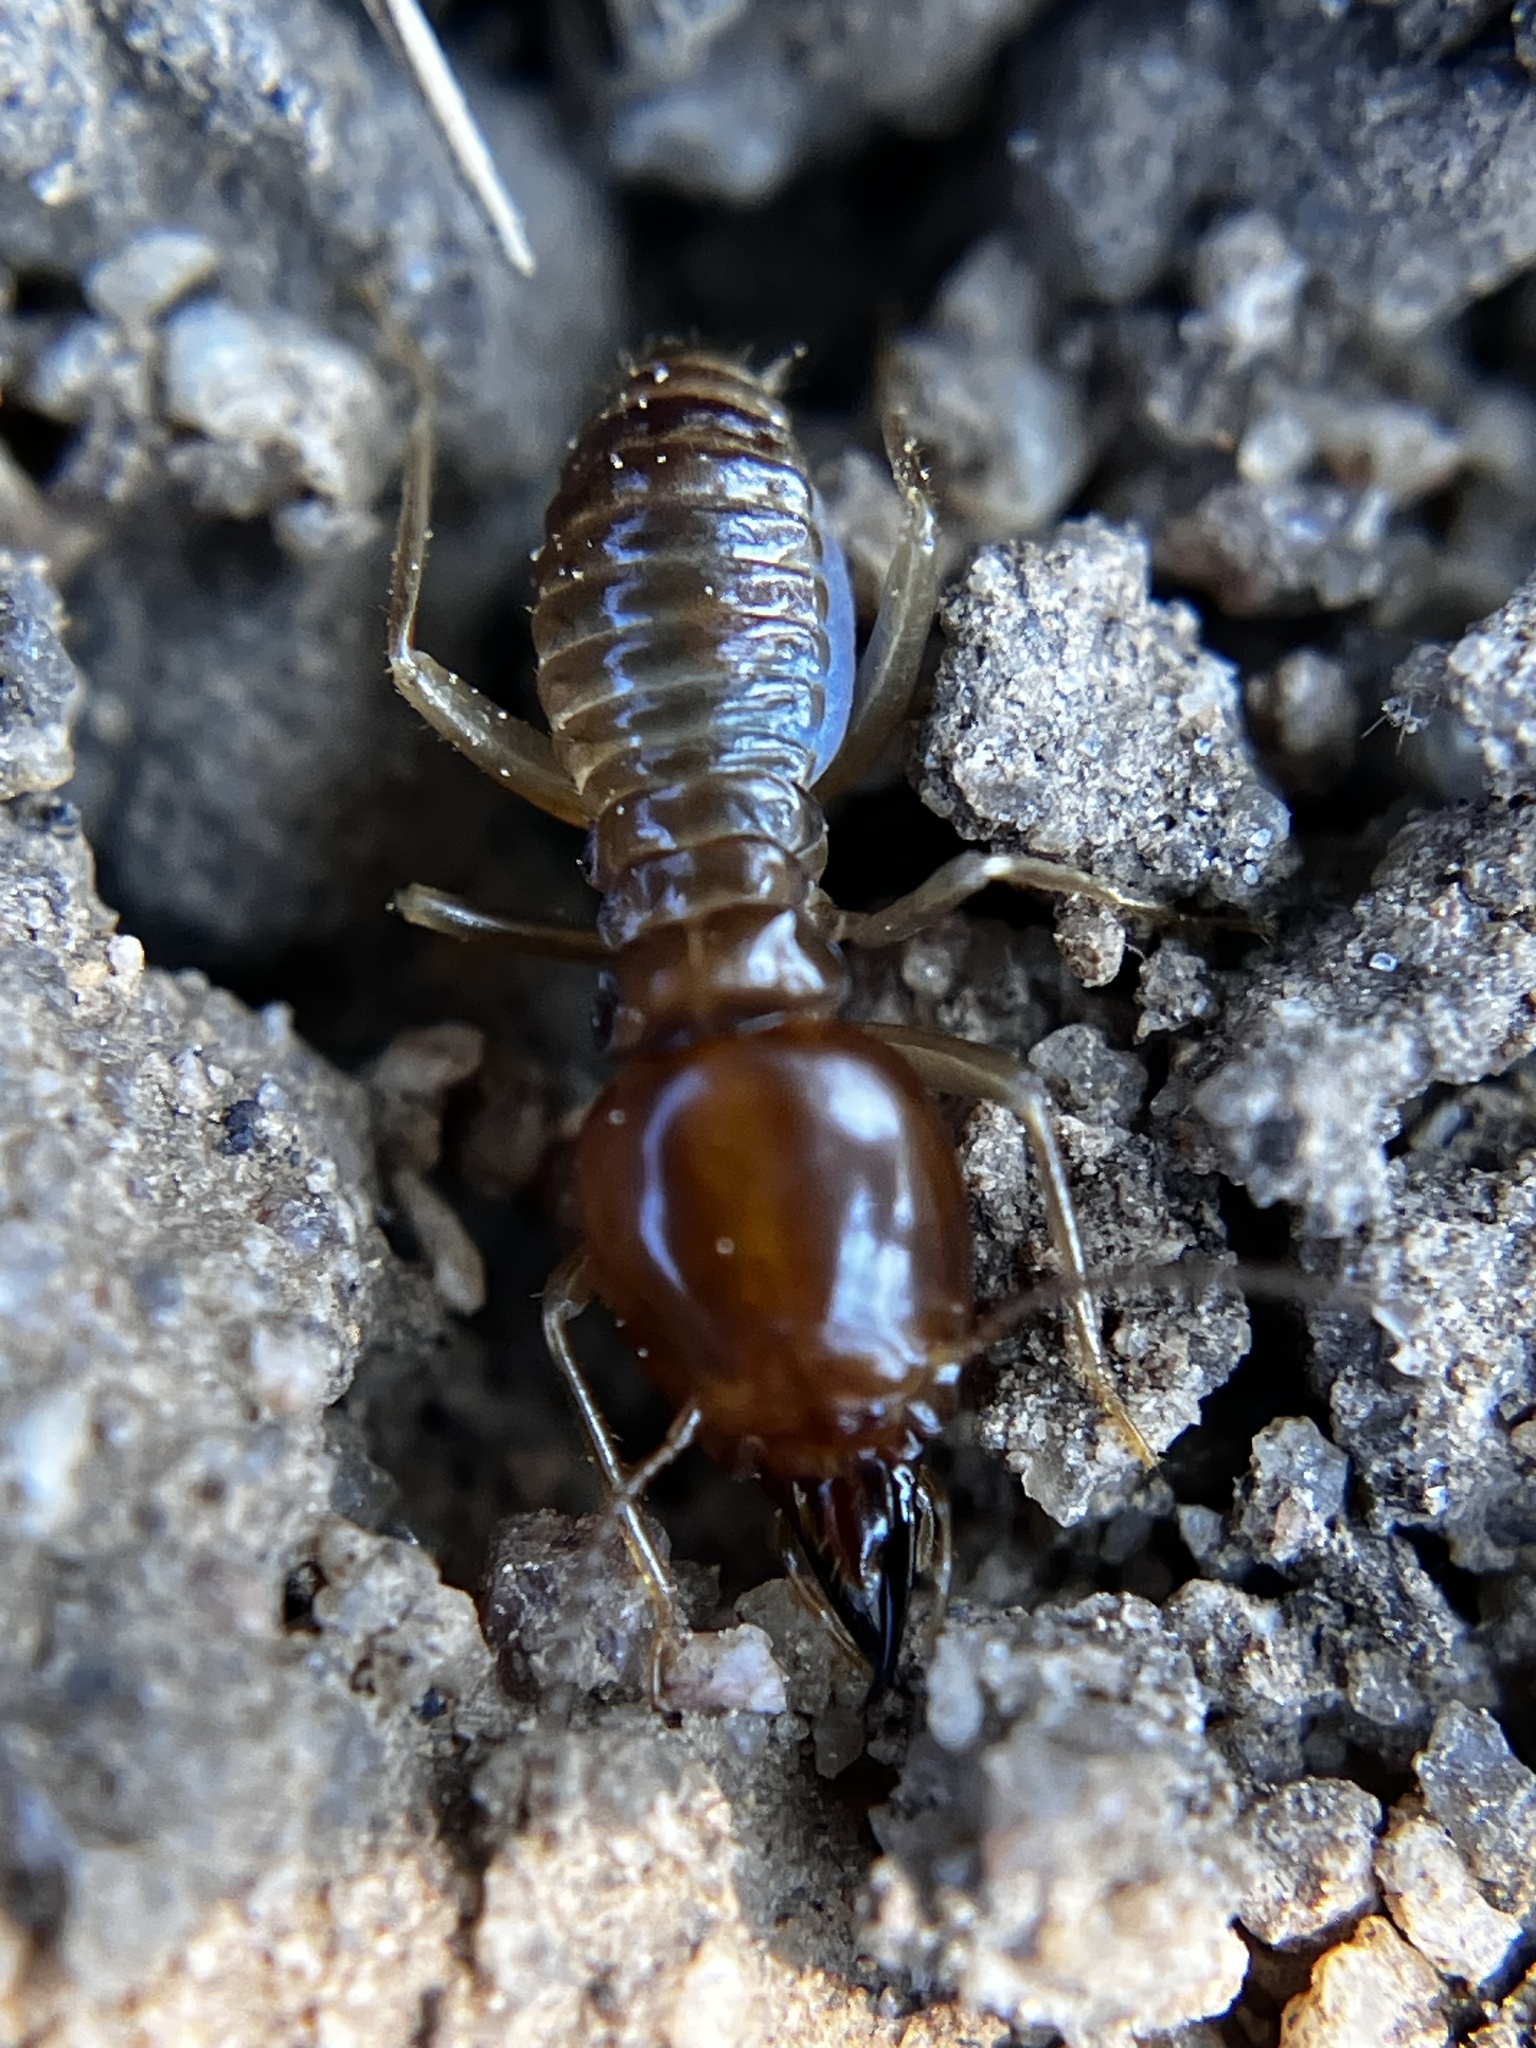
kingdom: Animalia
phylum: Arthropoda
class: Insecta
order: Blattodea
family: Termitidae
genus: Macrotermes
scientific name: Macrotermes convulsionarius
